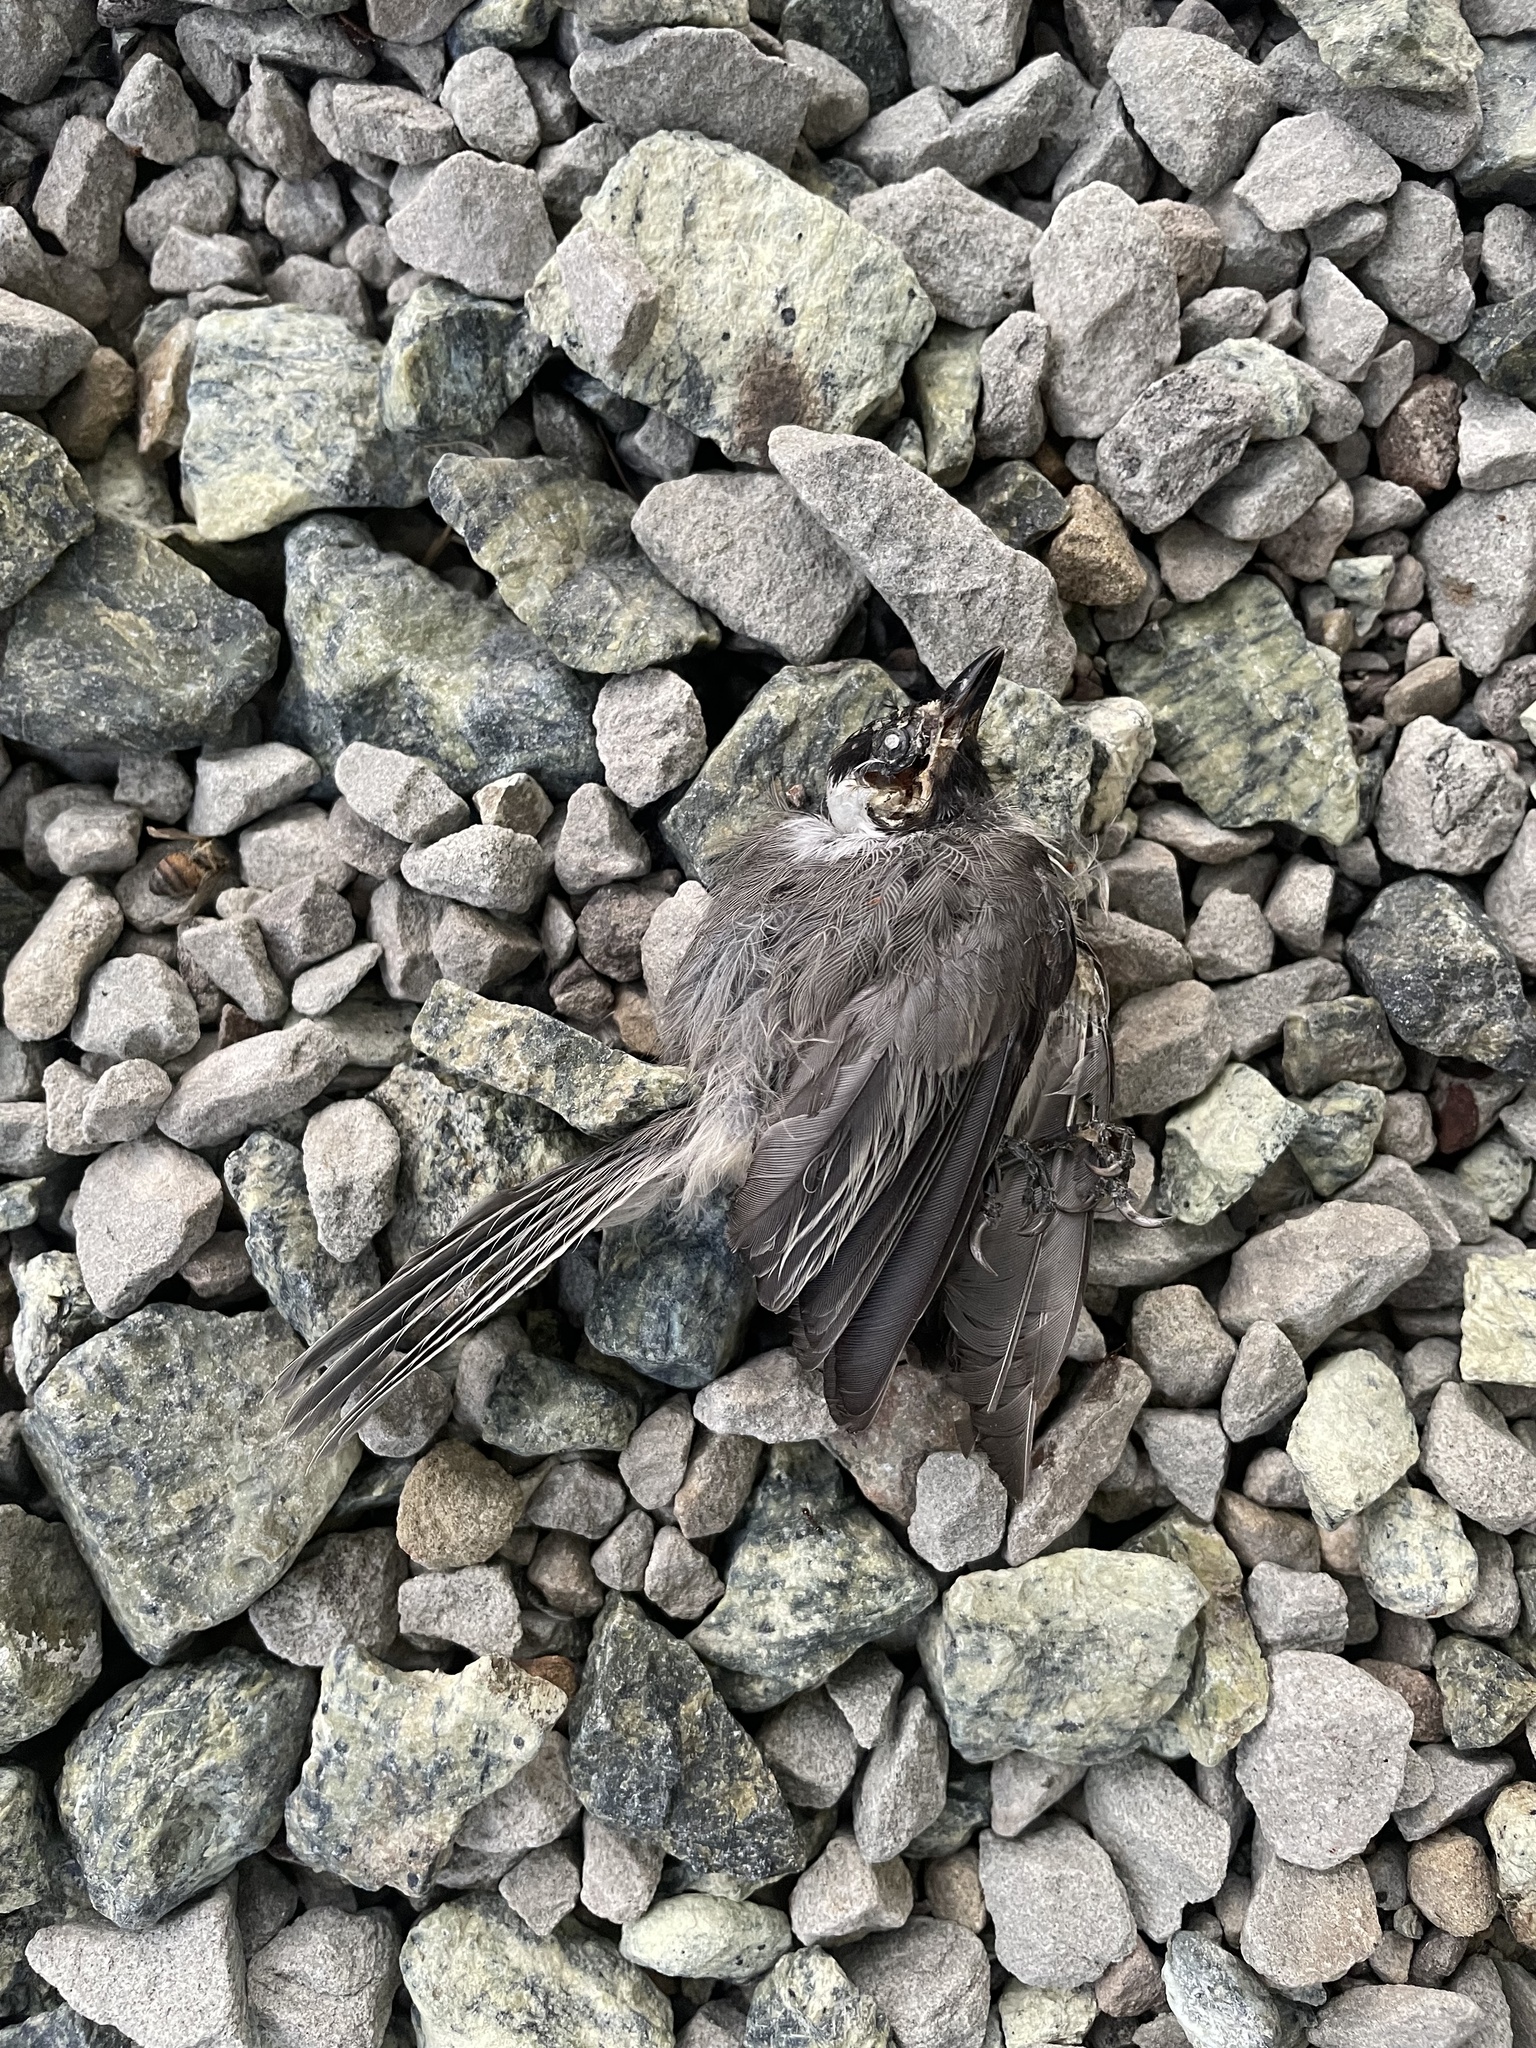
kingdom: Animalia
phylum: Chordata
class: Aves
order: Passeriformes
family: Paridae
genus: Poecile
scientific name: Poecile carolinensis
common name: Carolina chickadee
